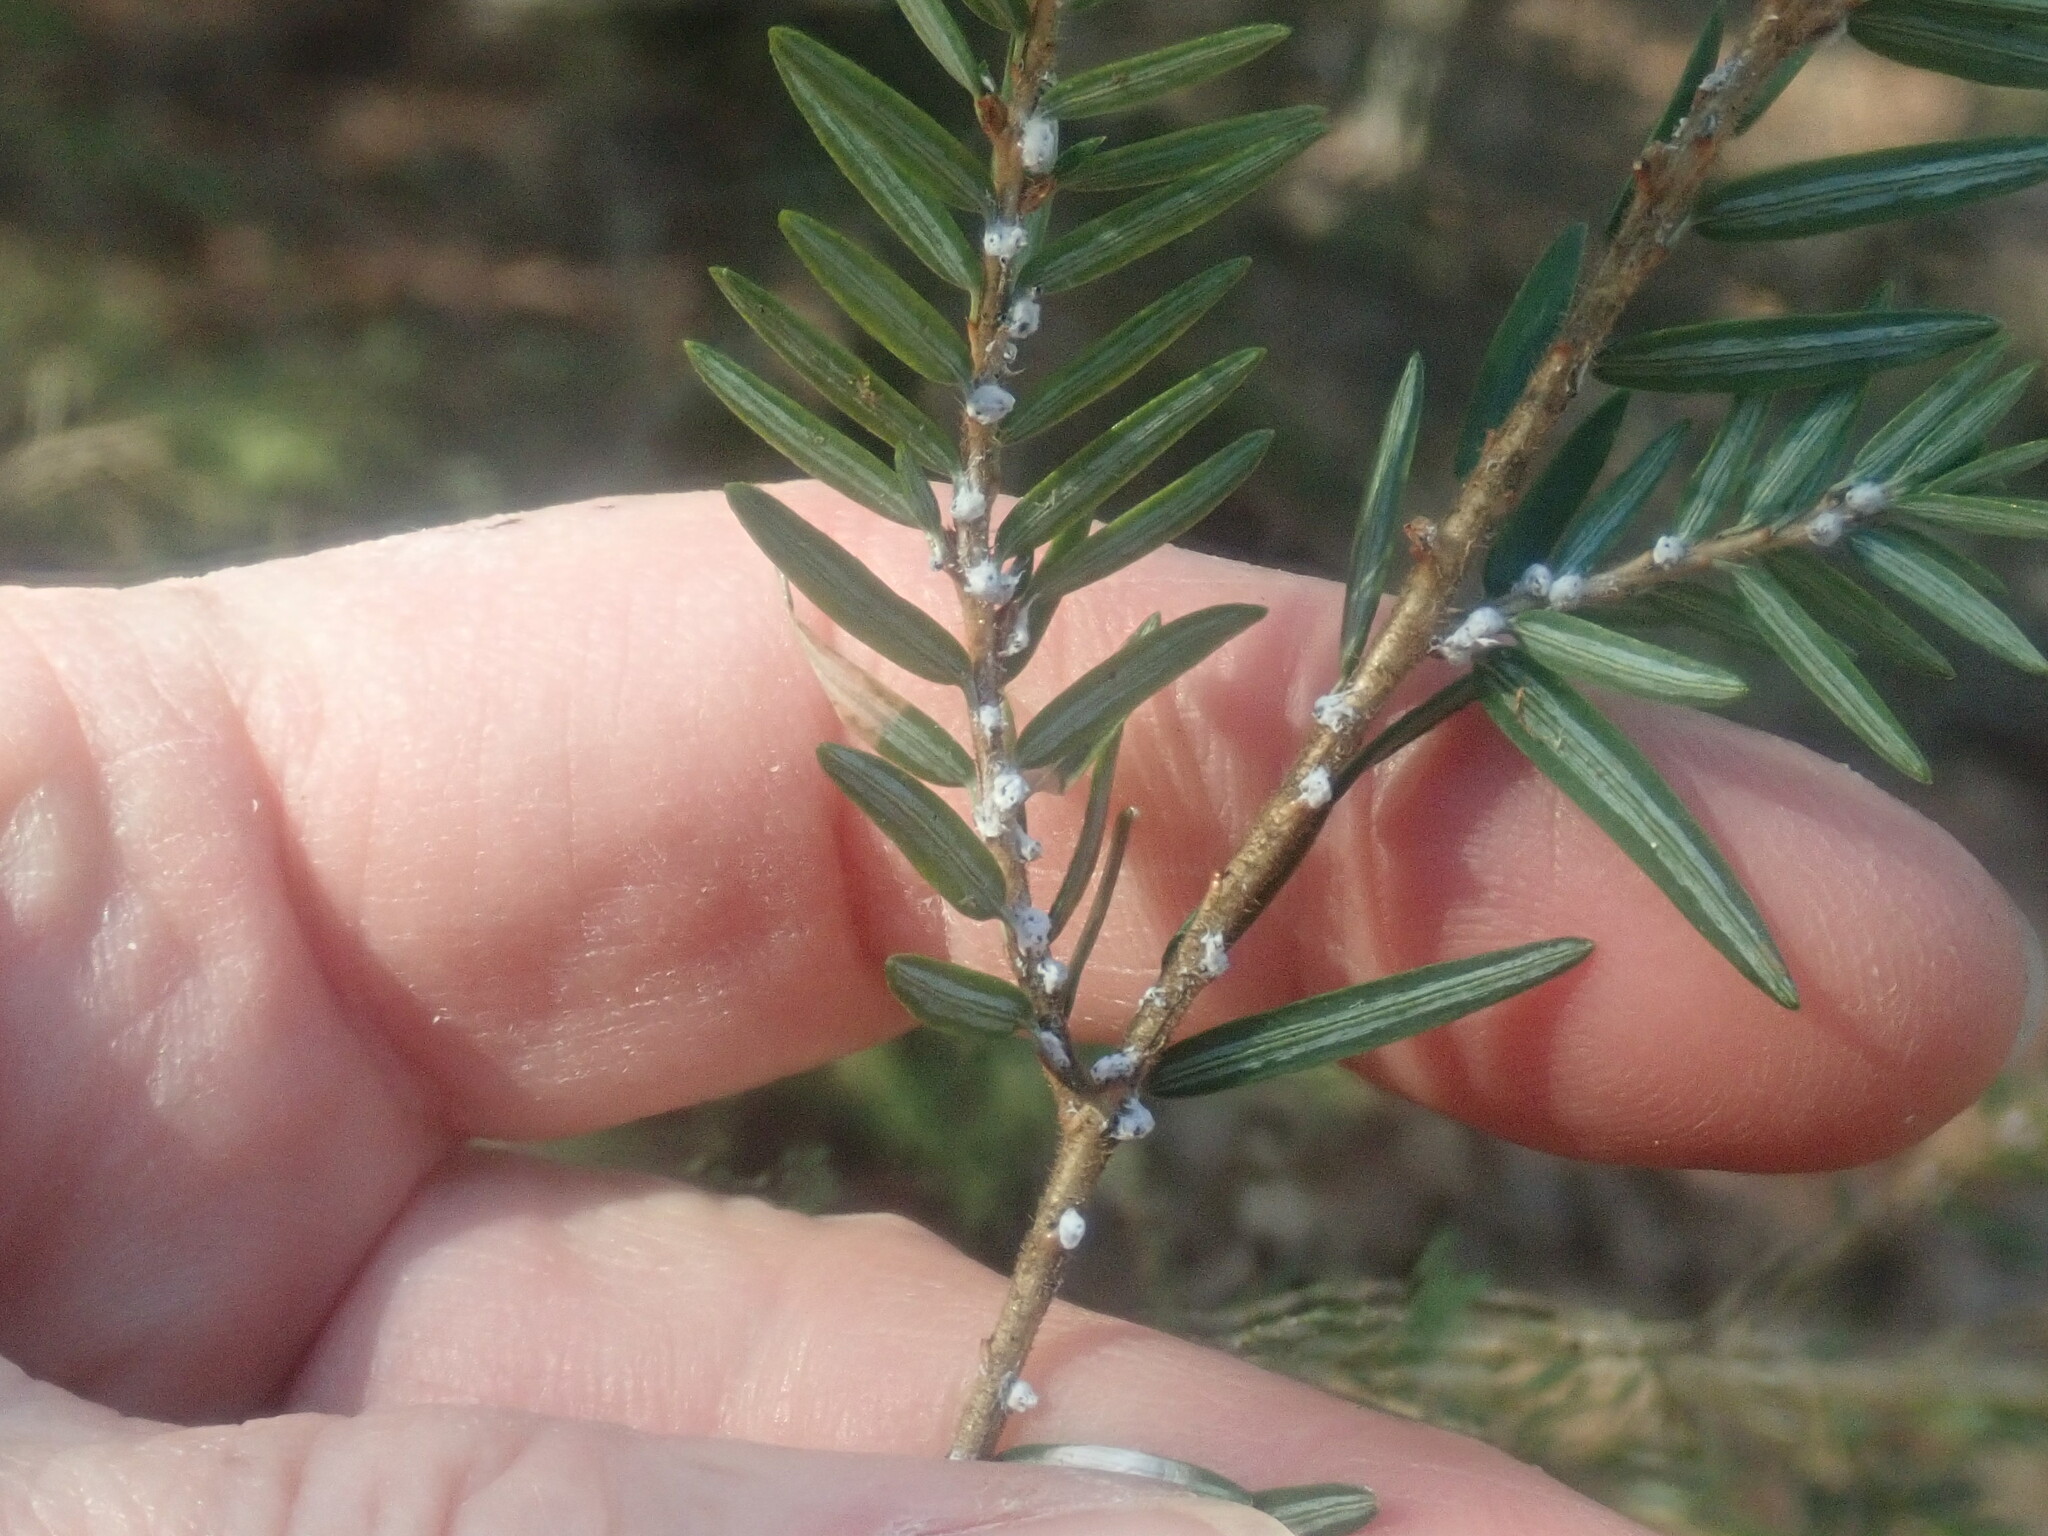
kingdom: Animalia
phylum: Arthropoda
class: Insecta
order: Hemiptera
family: Adelgidae
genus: Adelges
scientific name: Adelges tsugae
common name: Hemlock woolly adelgid
